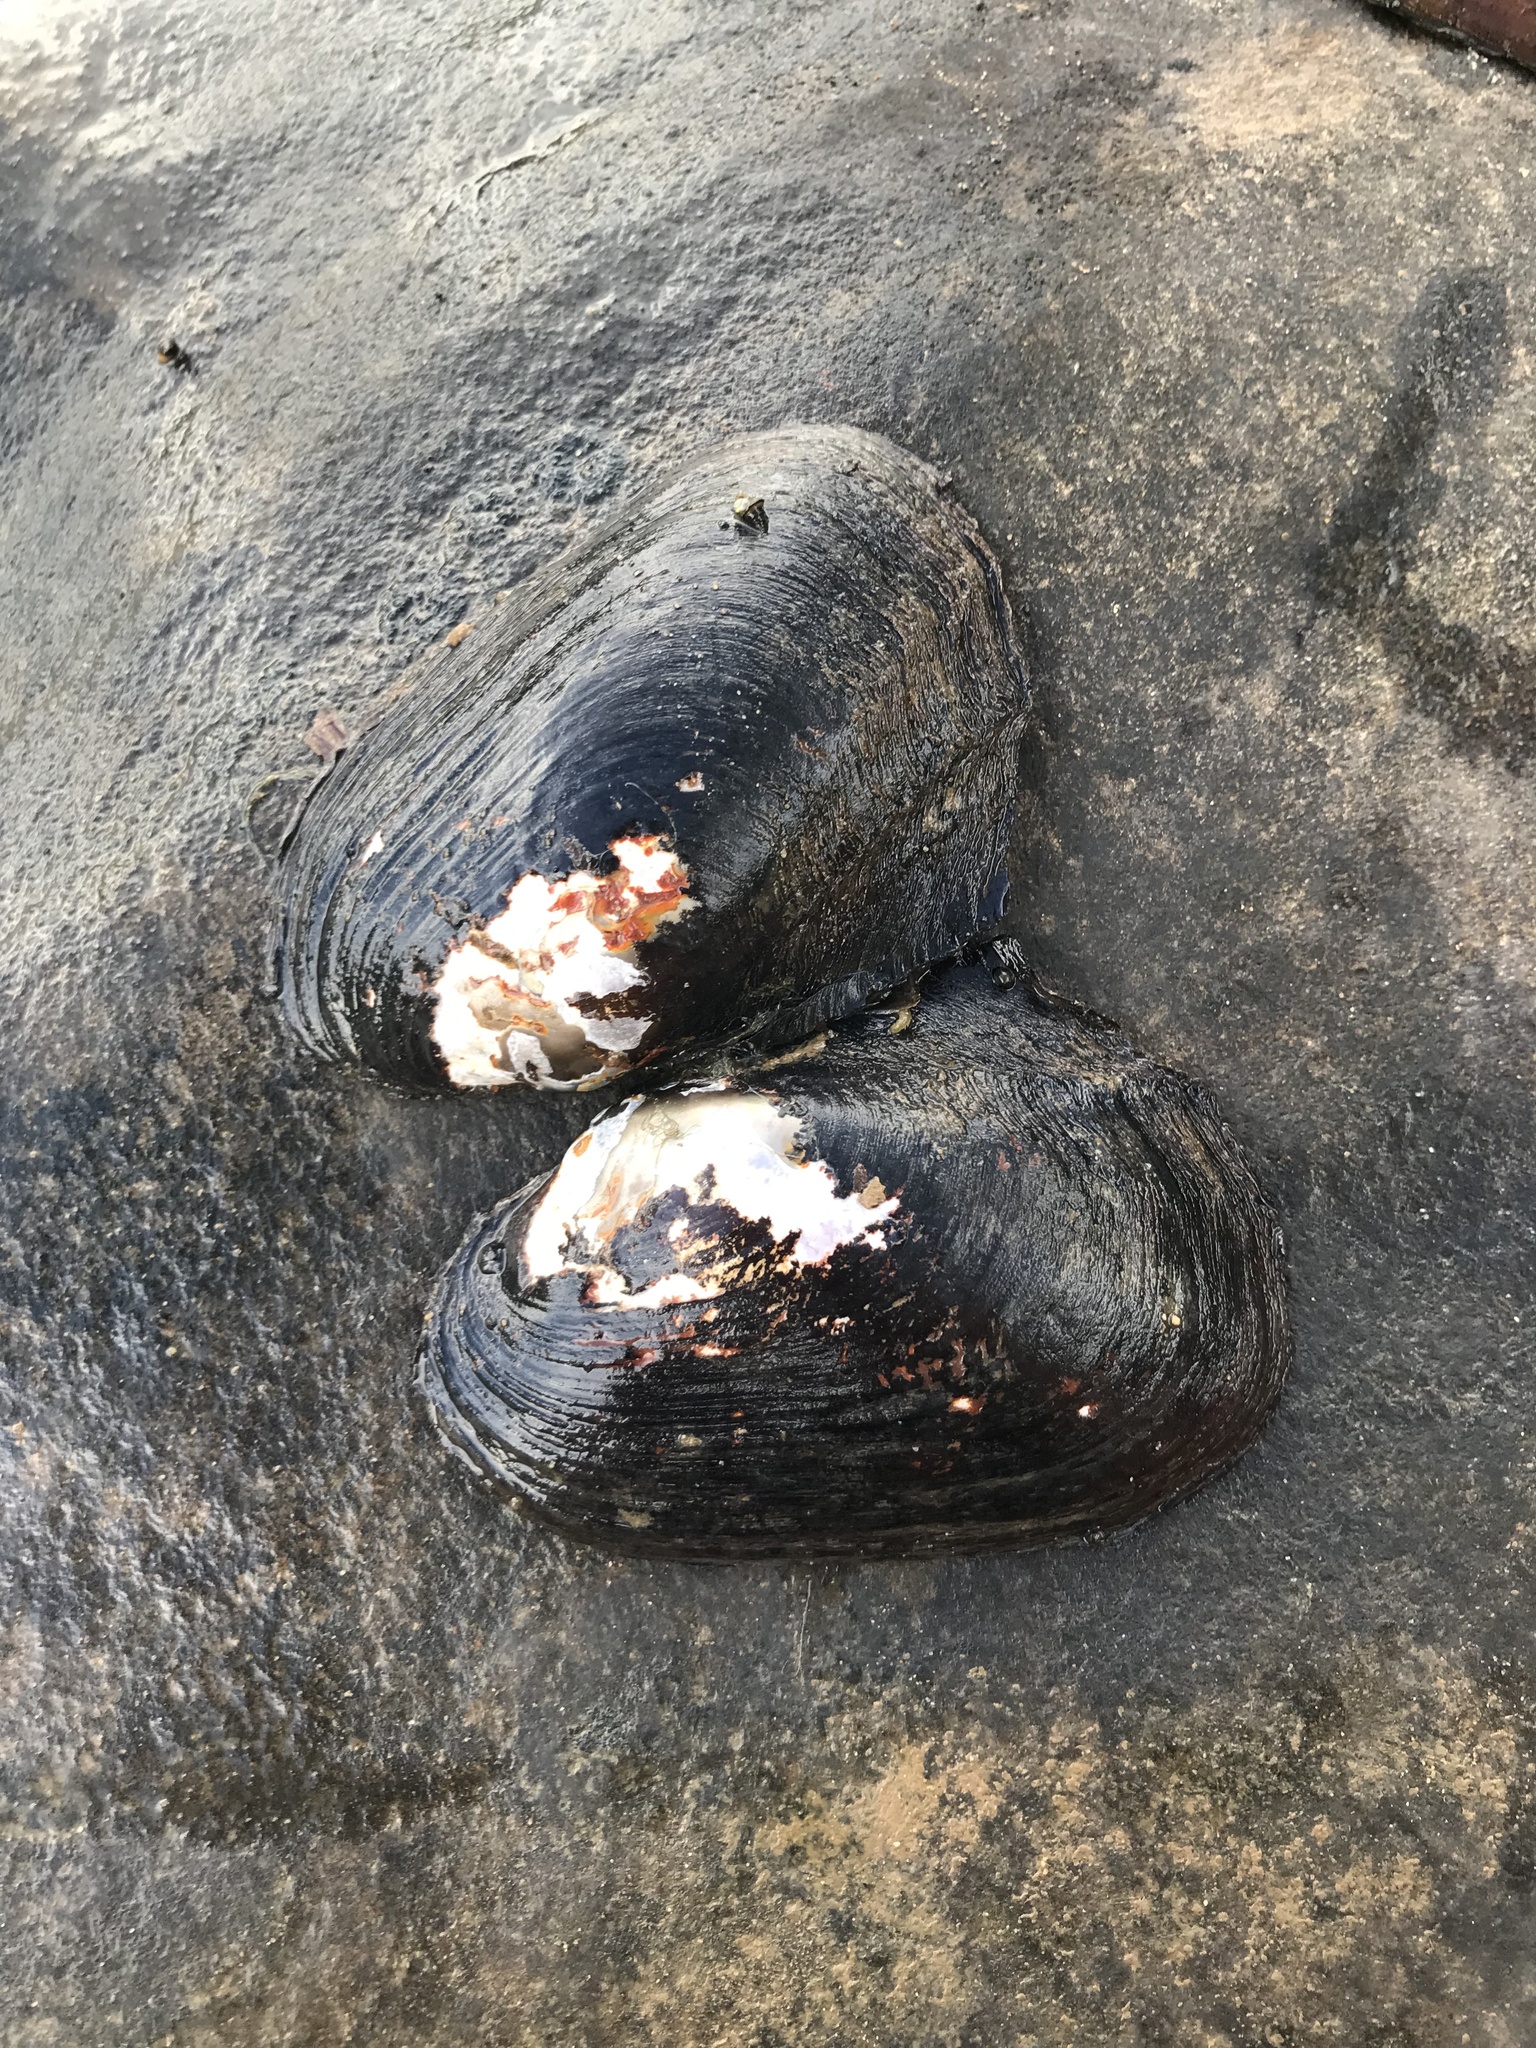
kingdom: Animalia
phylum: Mollusca
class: Bivalvia
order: Unionida
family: Unionidae
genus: Potamilus
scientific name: Potamilus purpuratus
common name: Bleufer
